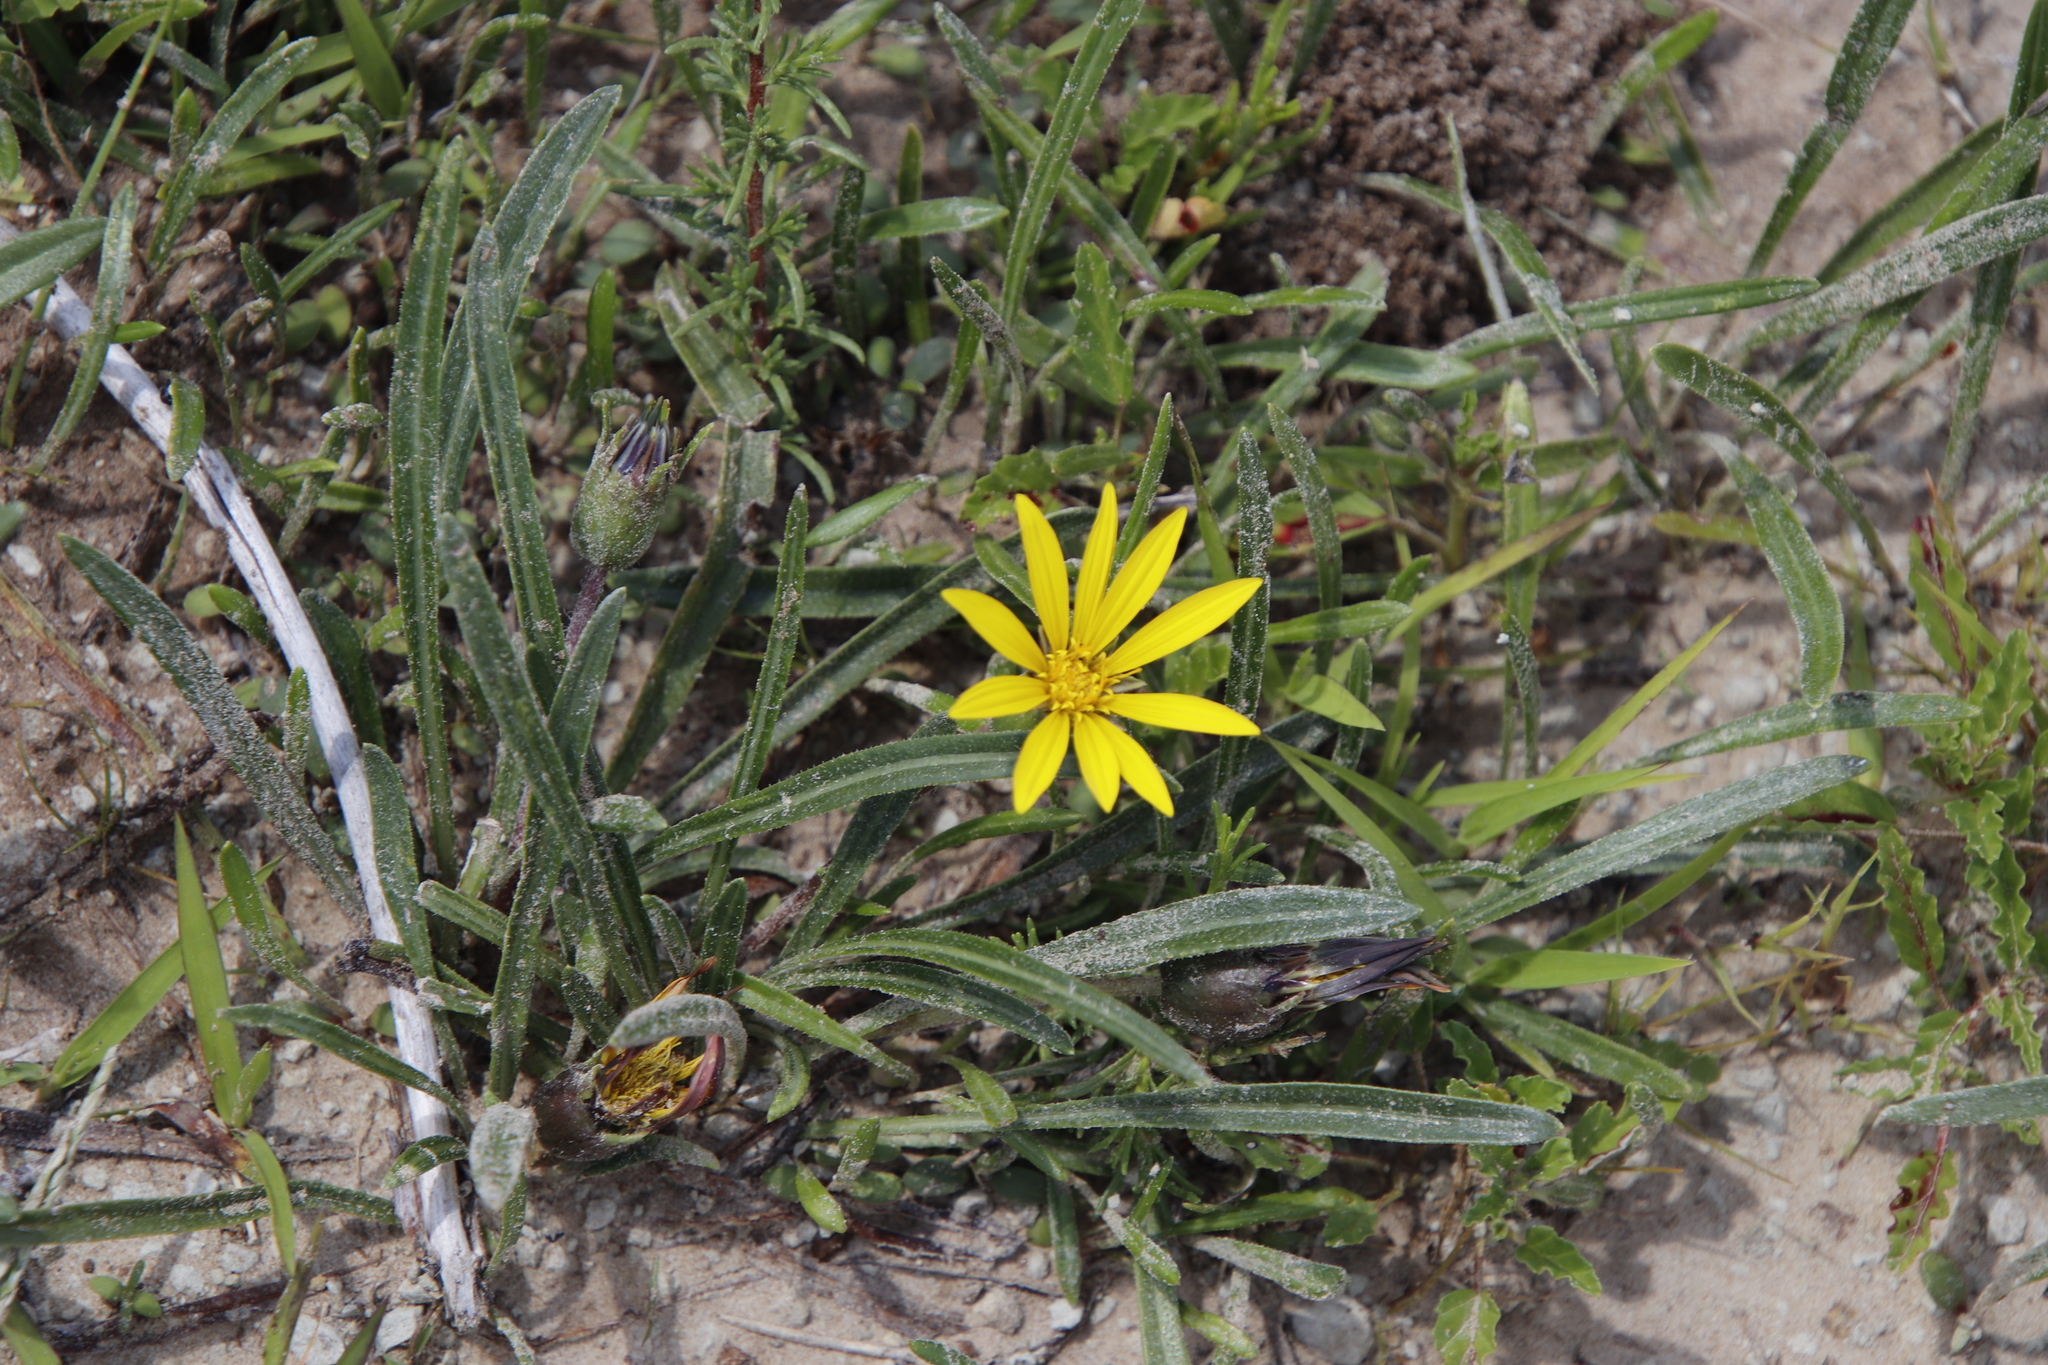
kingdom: Plantae
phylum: Tracheophyta
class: Magnoliopsida
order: Asterales
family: Asteraceae
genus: Gazania
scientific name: Gazania krebsiana
